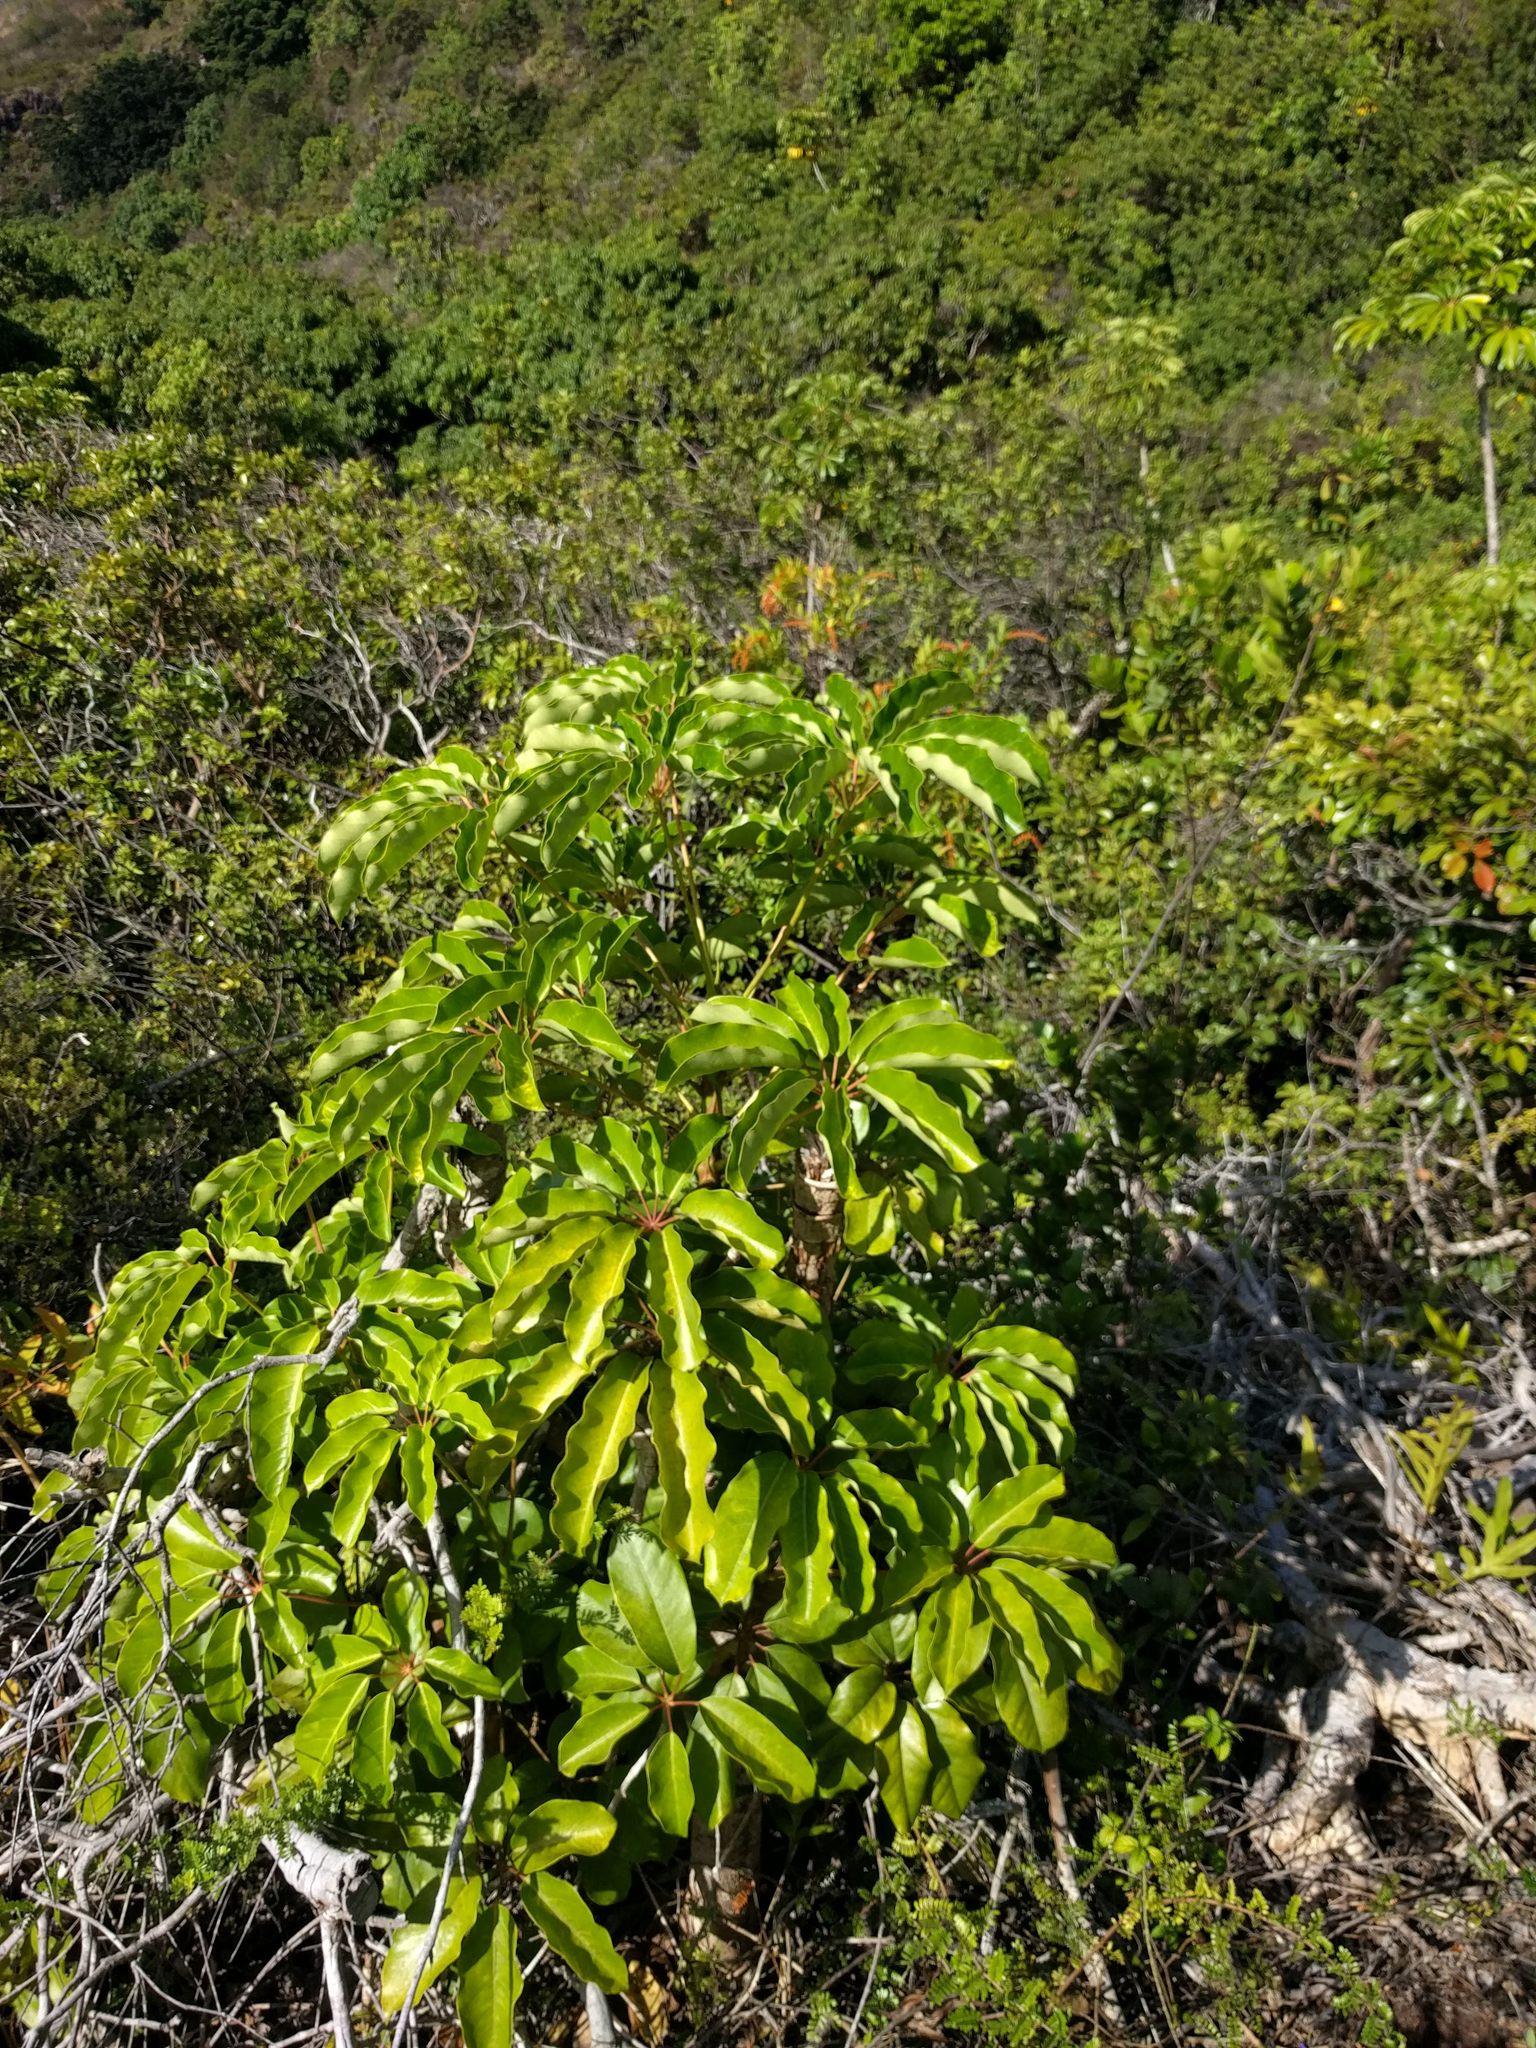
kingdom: Plantae
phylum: Tracheophyta
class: Magnoliopsida
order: Apiales
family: Araliaceae
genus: Heptapleurum
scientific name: Heptapleurum actinophyllum
